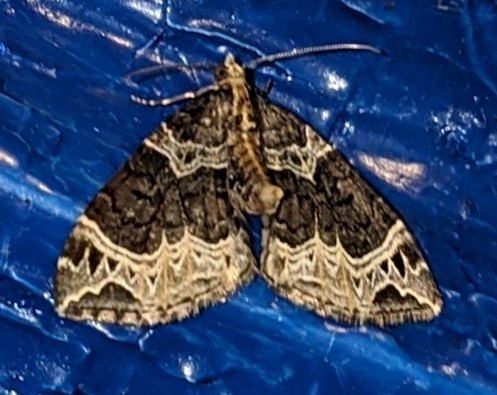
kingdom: Animalia
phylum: Arthropoda
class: Insecta
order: Lepidoptera
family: Geometridae
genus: Ecliptopera
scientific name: Ecliptopera silaceata
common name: Small phoenix
